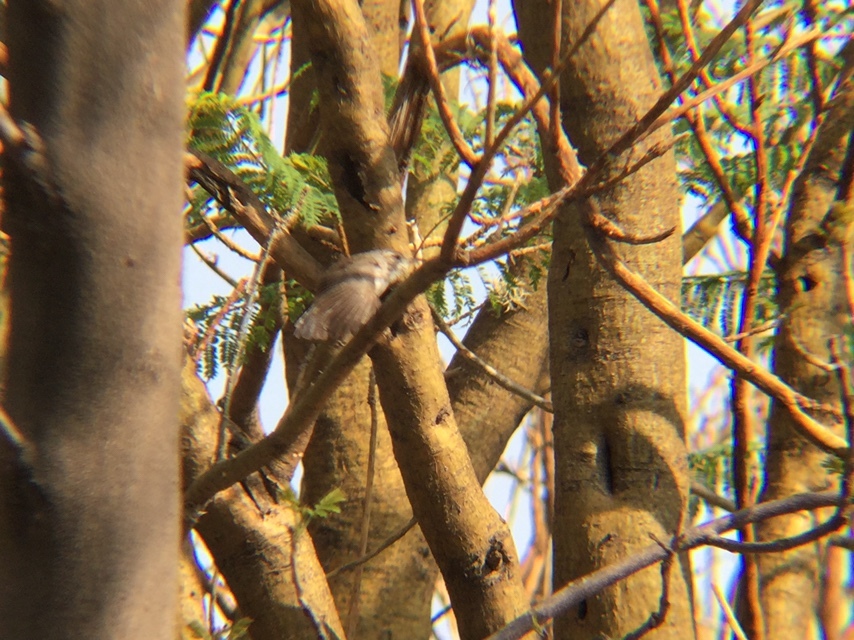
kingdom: Animalia
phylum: Chordata
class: Aves
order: Passeriformes
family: Troglodytidae
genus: Thryomanes
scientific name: Thryomanes bewickii
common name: Bewick's wren
